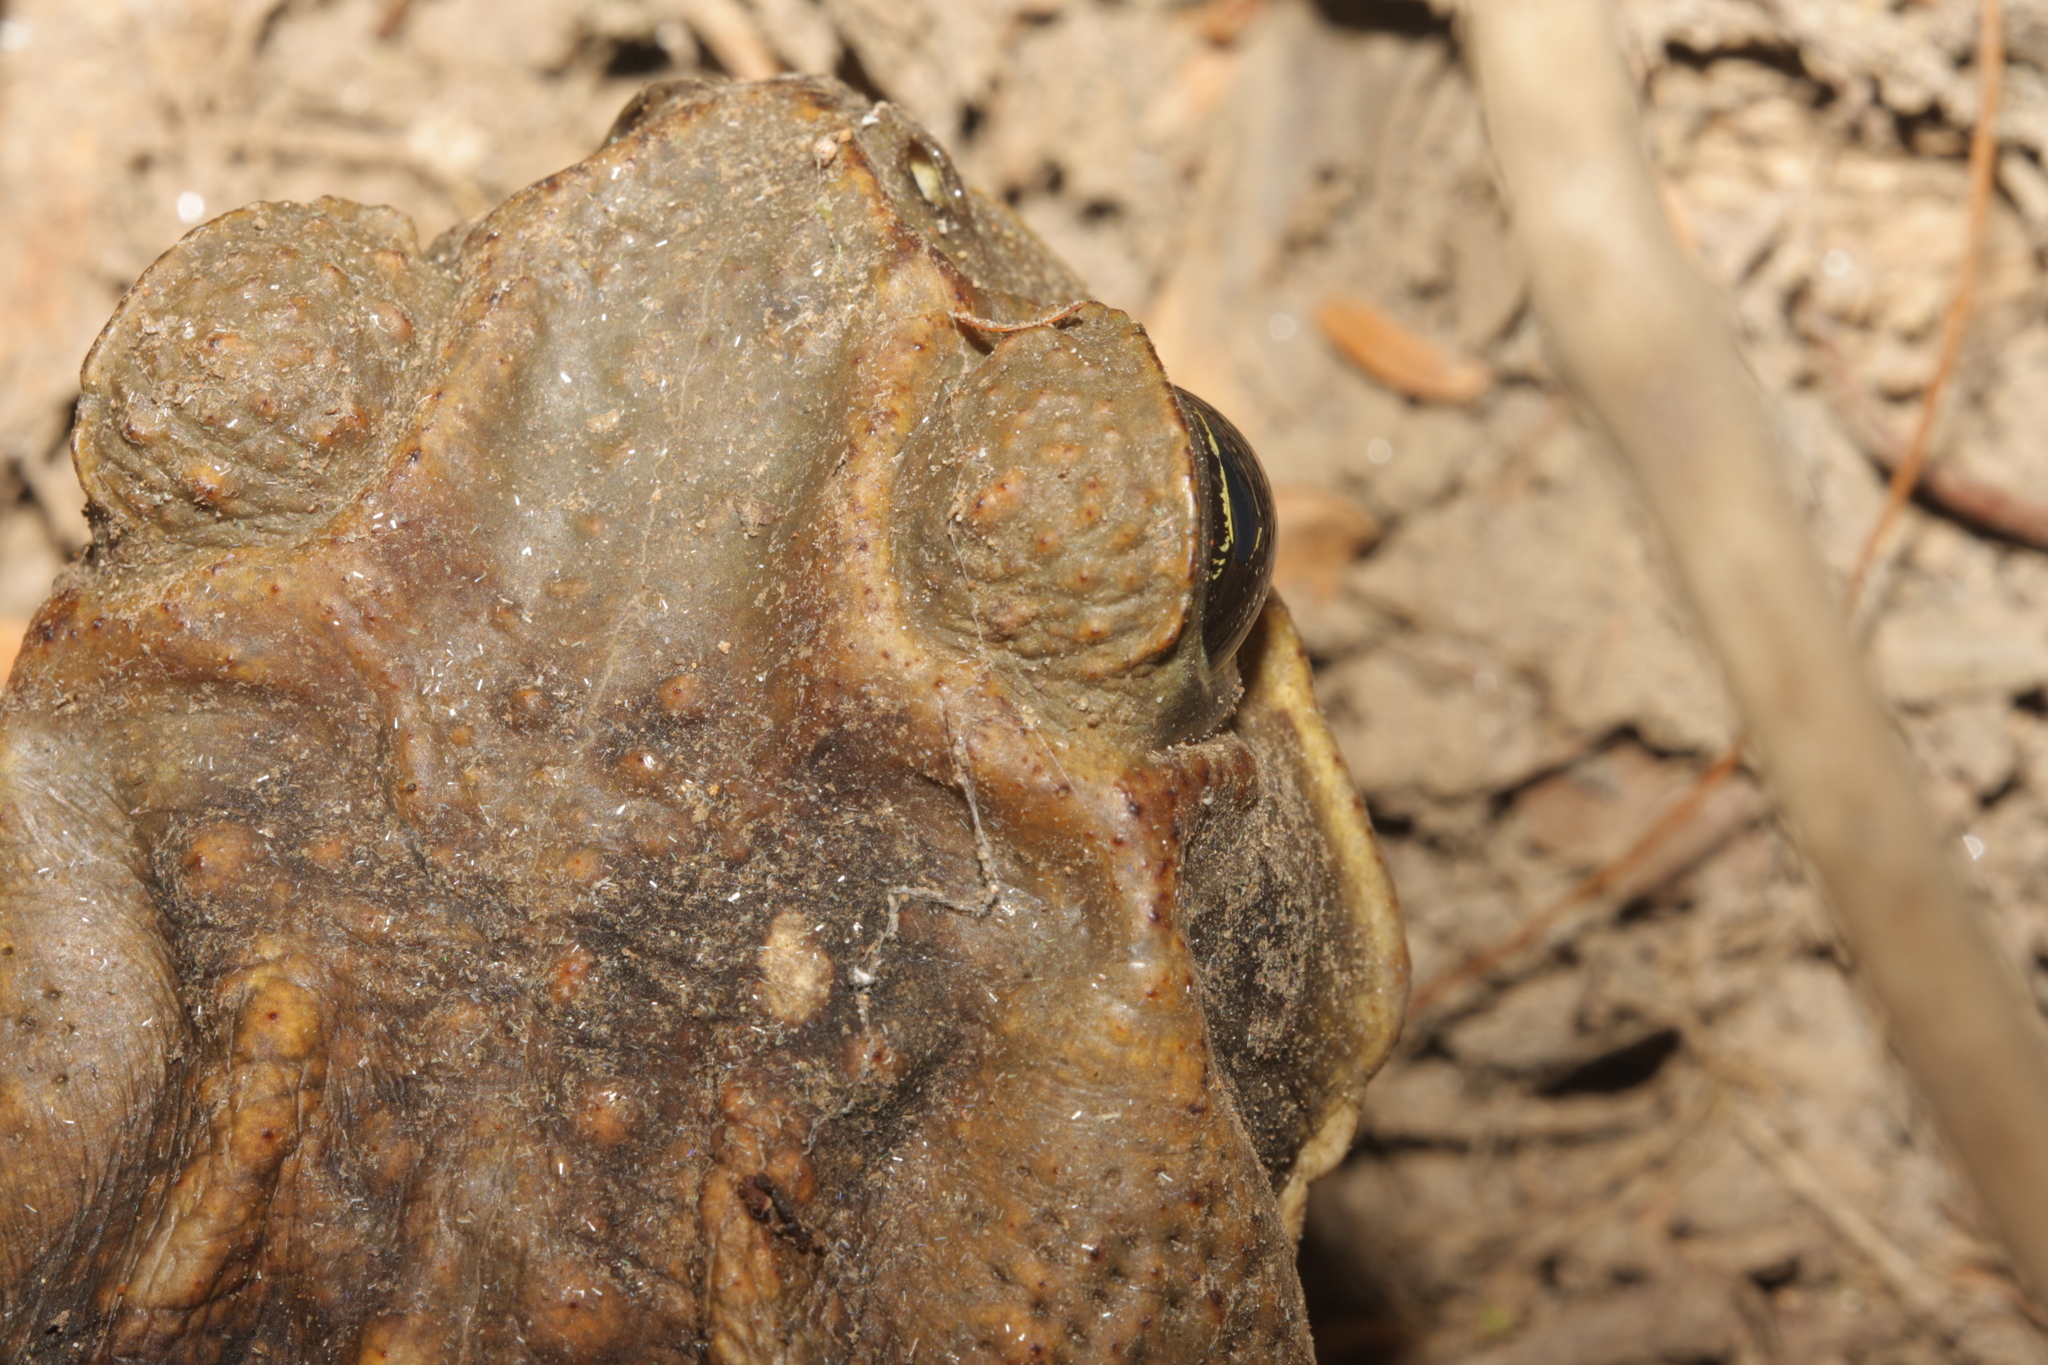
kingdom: Animalia
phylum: Chordata
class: Amphibia
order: Anura
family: Bufonidae
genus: Rhinella
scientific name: Rhinella horribilis
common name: Mesoamerican cane toad
